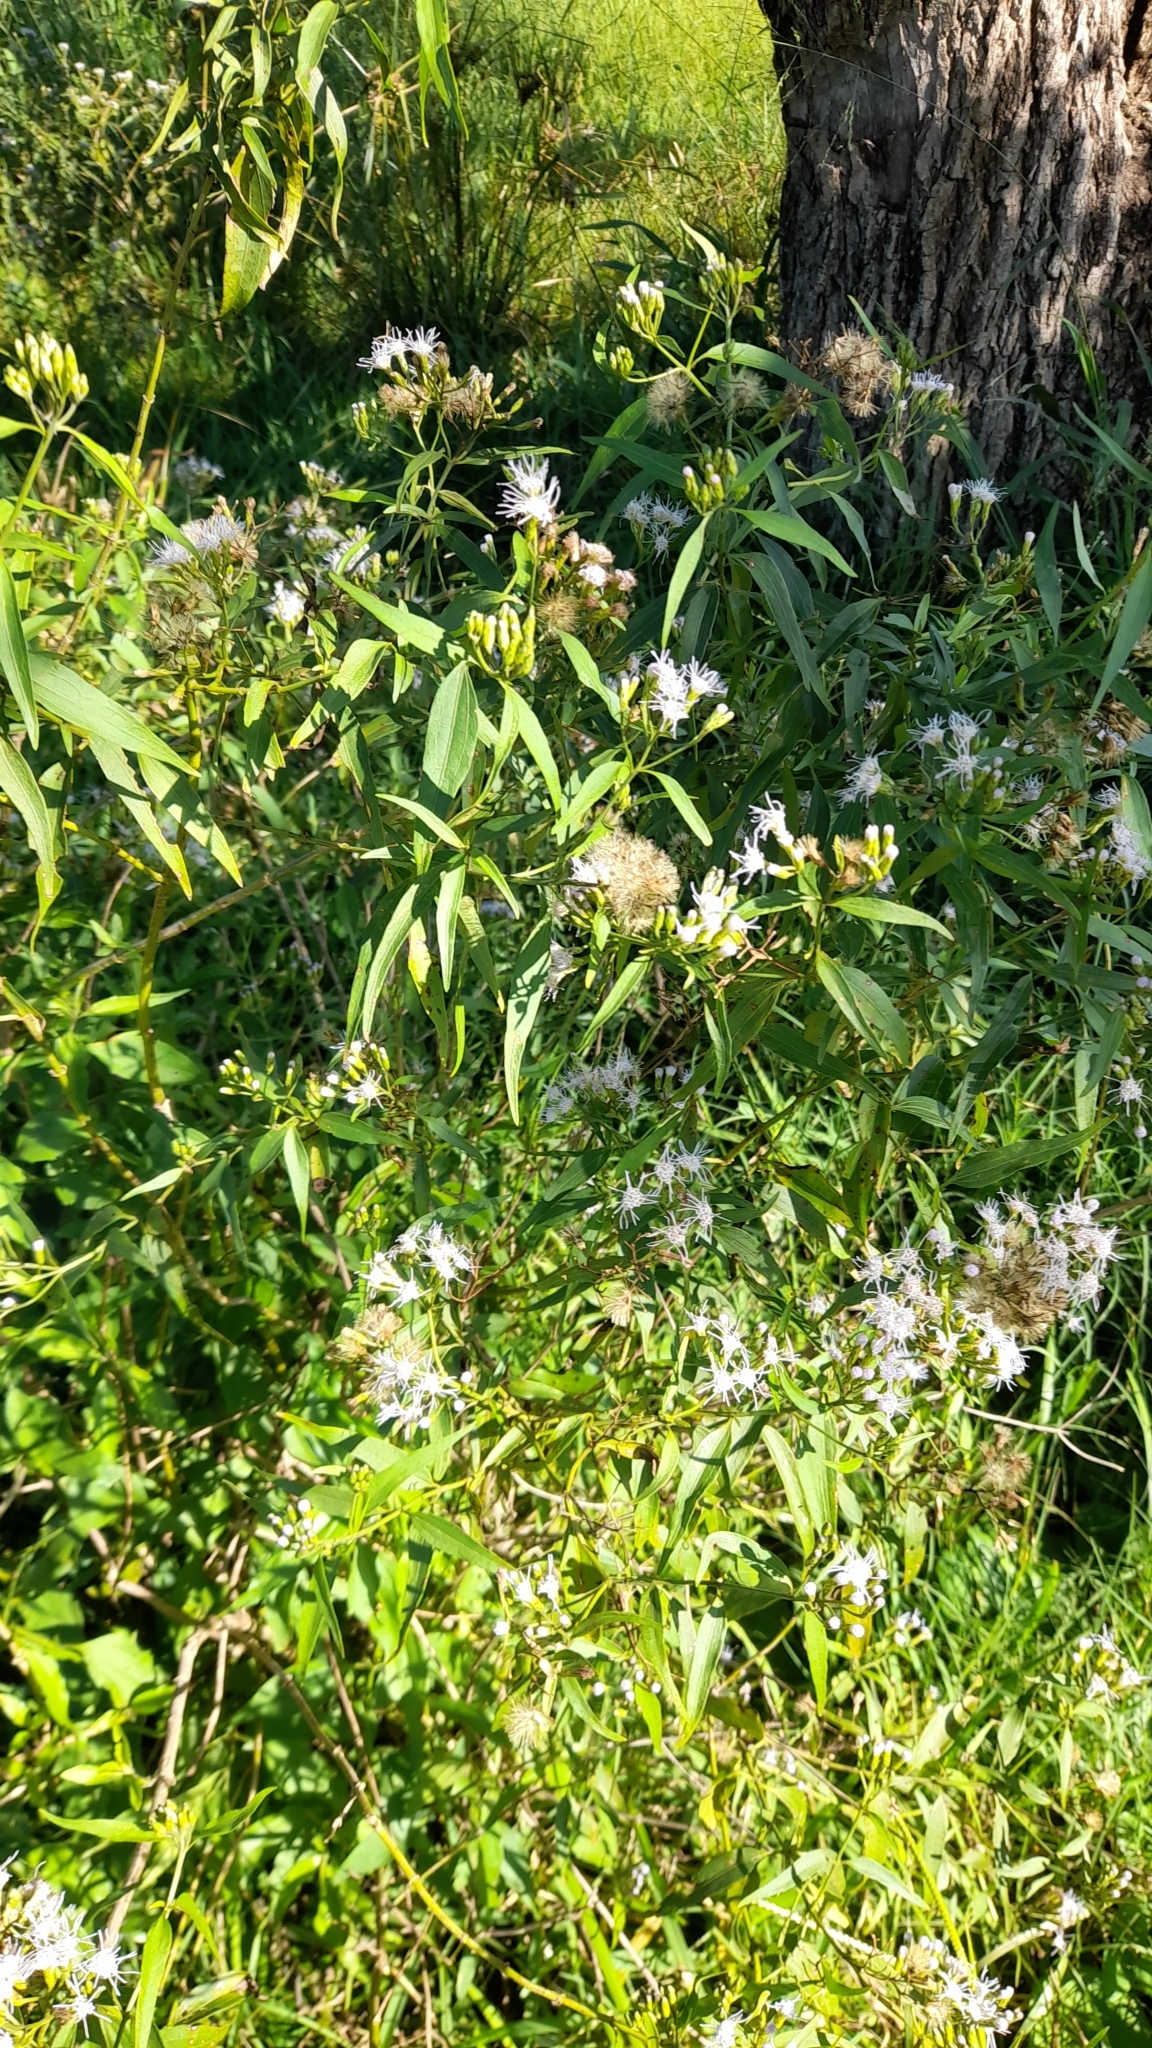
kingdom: Plantae
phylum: Tracheophyta
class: Magnoliopsida
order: Asterales
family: Asteraceae
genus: Chromolaena
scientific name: Chromolaena christieana
